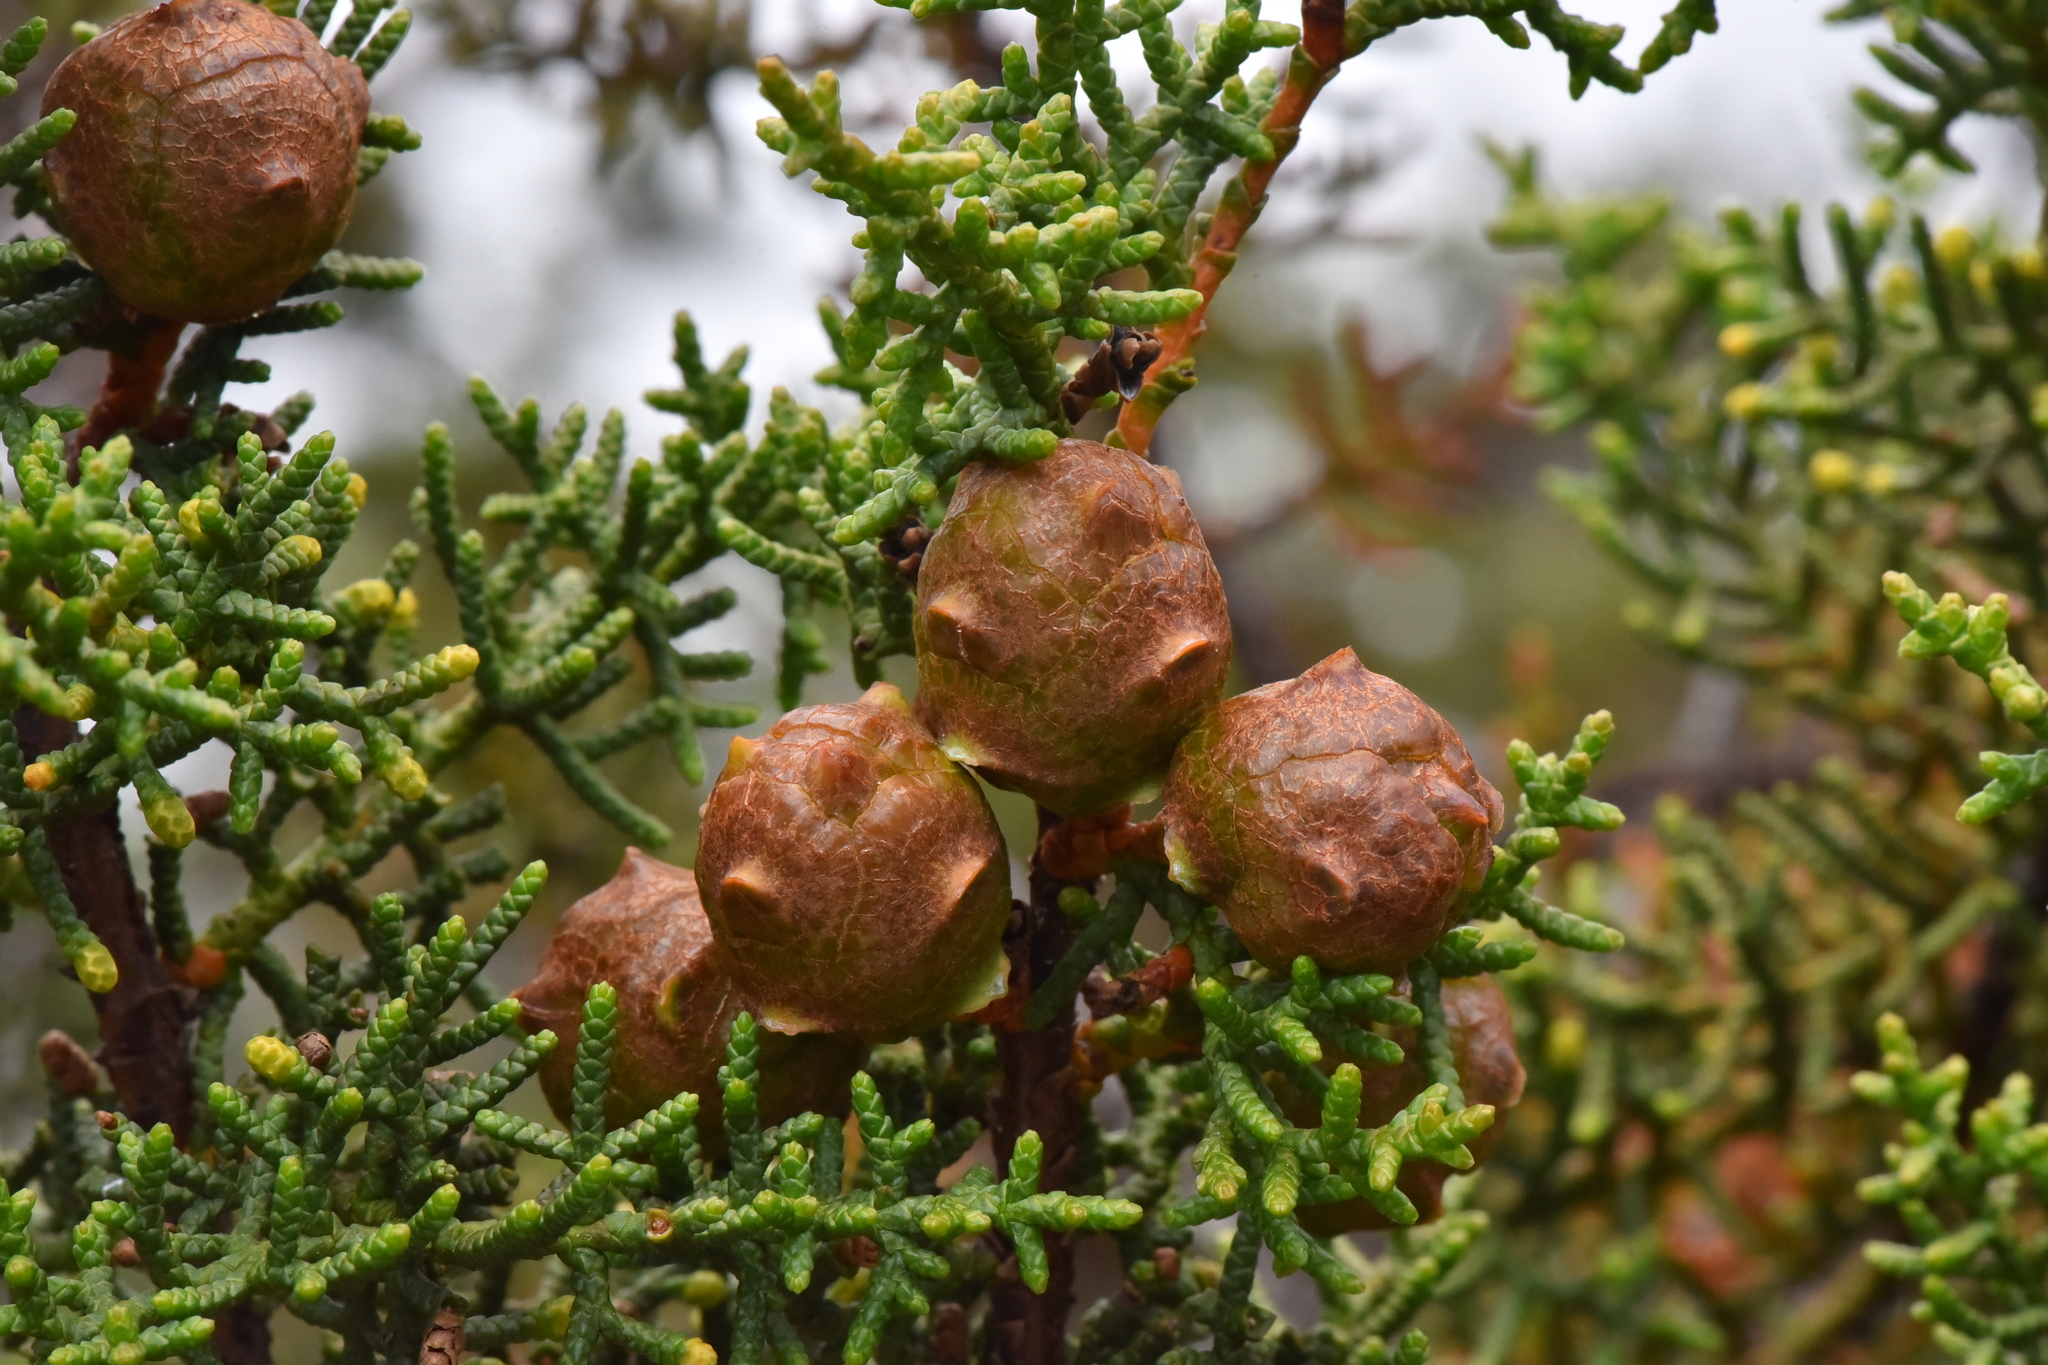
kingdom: Plantae
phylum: Tracheophyta
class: Pinopsida
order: Pinales
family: Cupressaceae
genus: Cupressus
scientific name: Cupressus goveniana
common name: Gowen cypress
